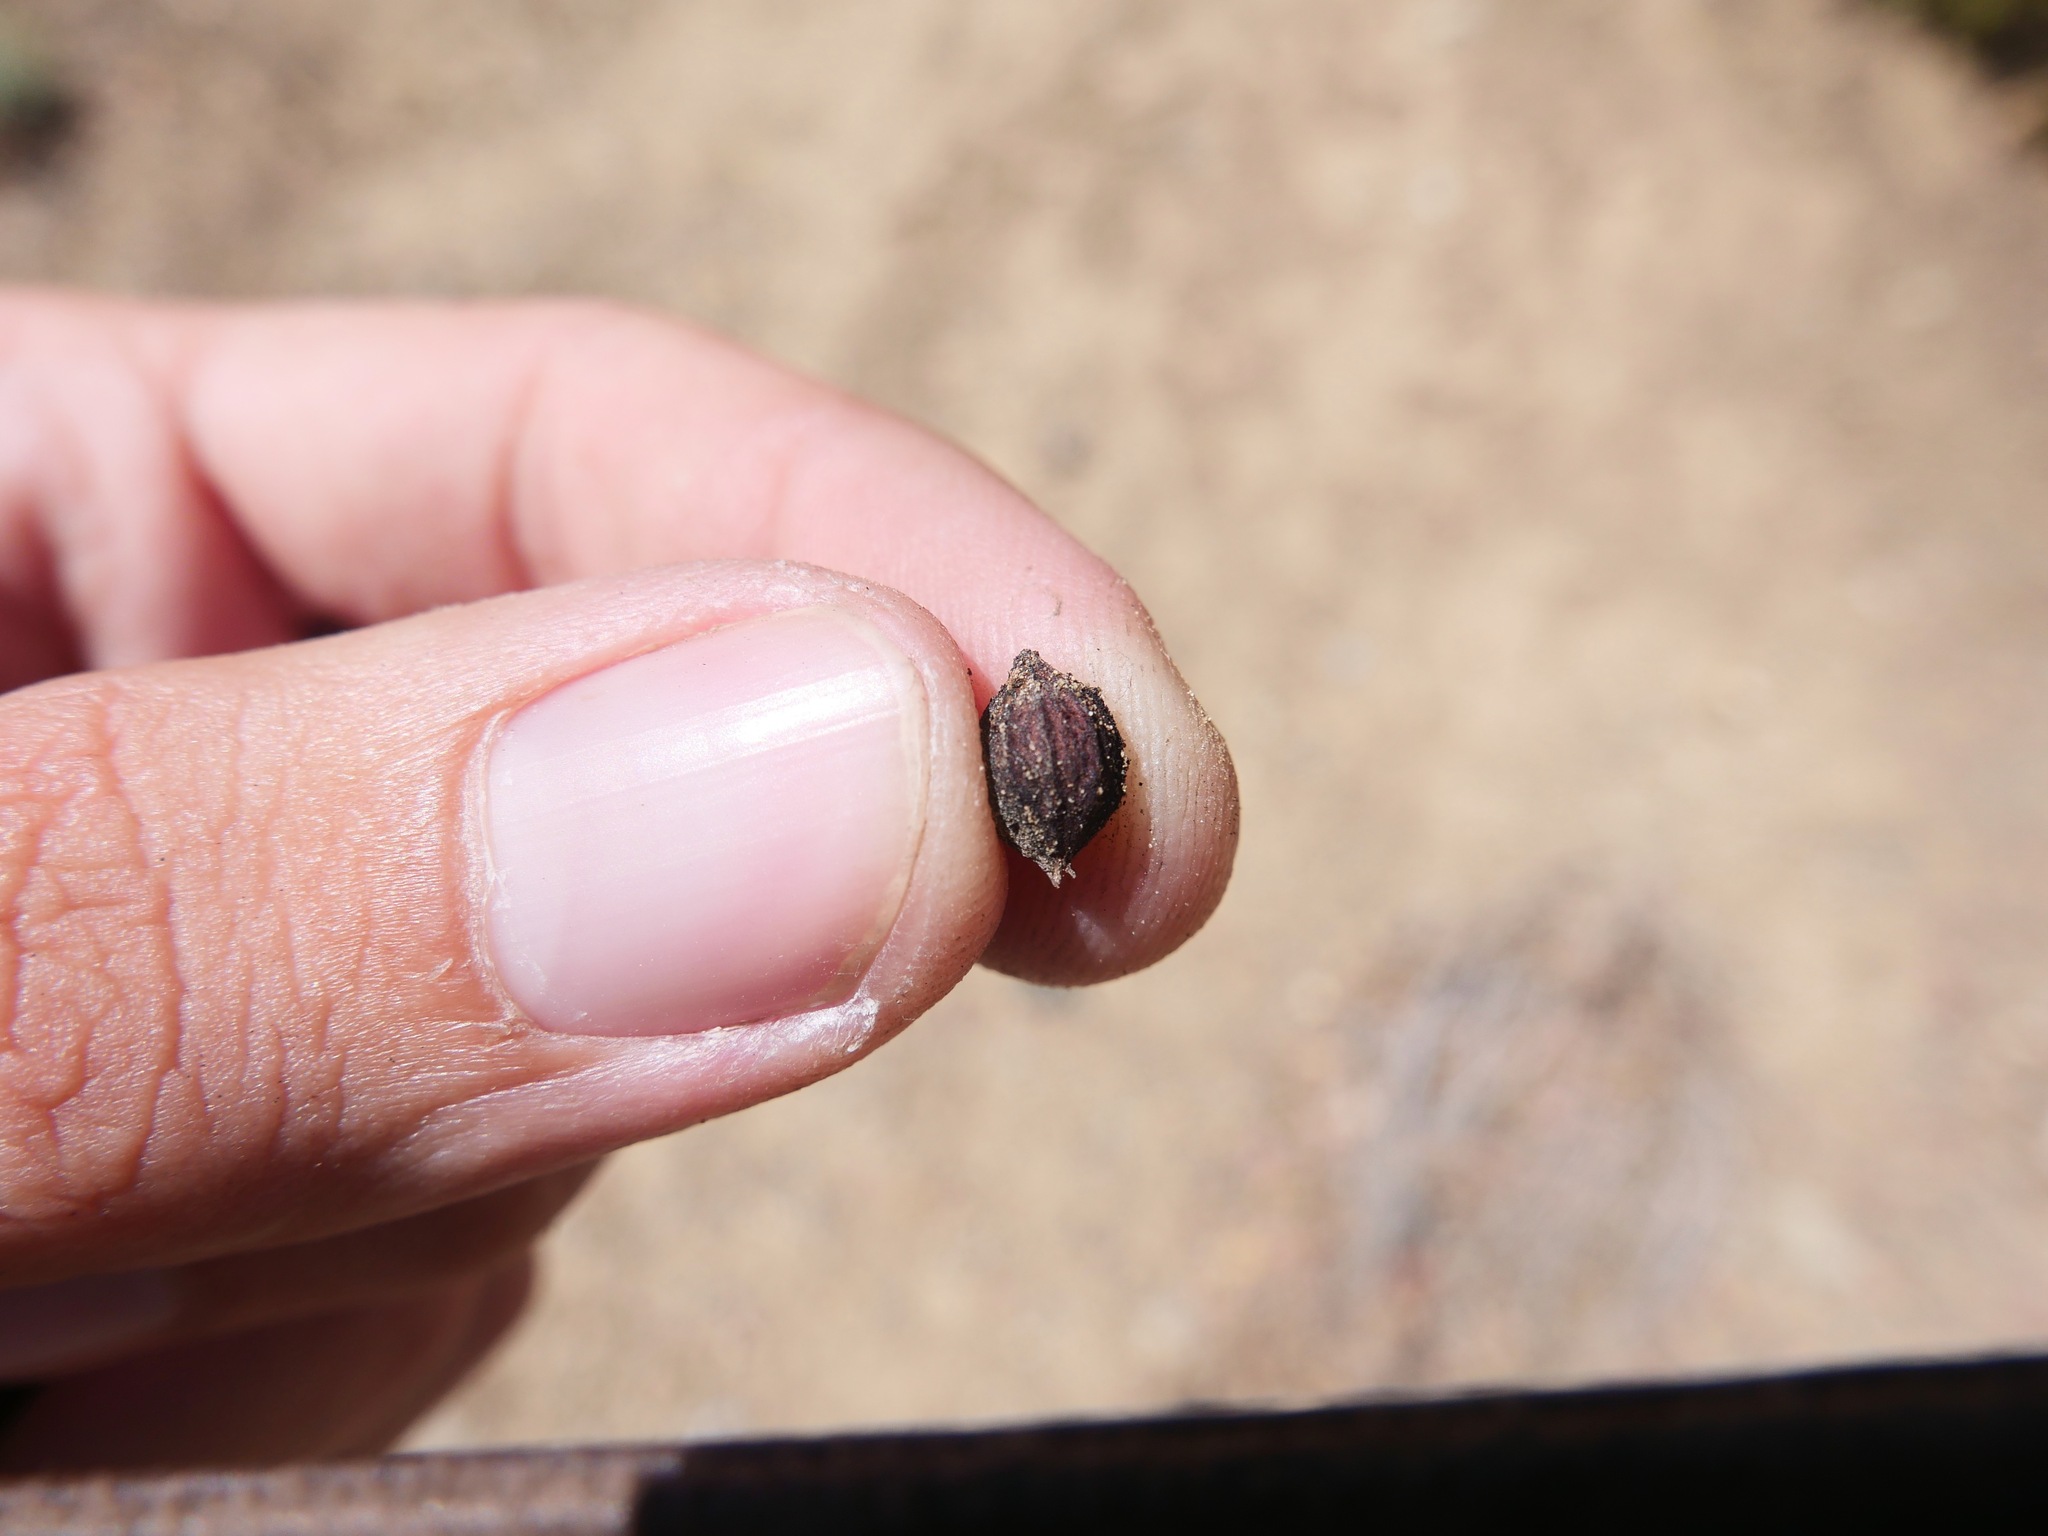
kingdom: Plantae
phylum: Tracheophyta
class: Magnoliopsida
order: Ericales
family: Ericaceae
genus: Arctostaphylos
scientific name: Arctostaphylos parryana
